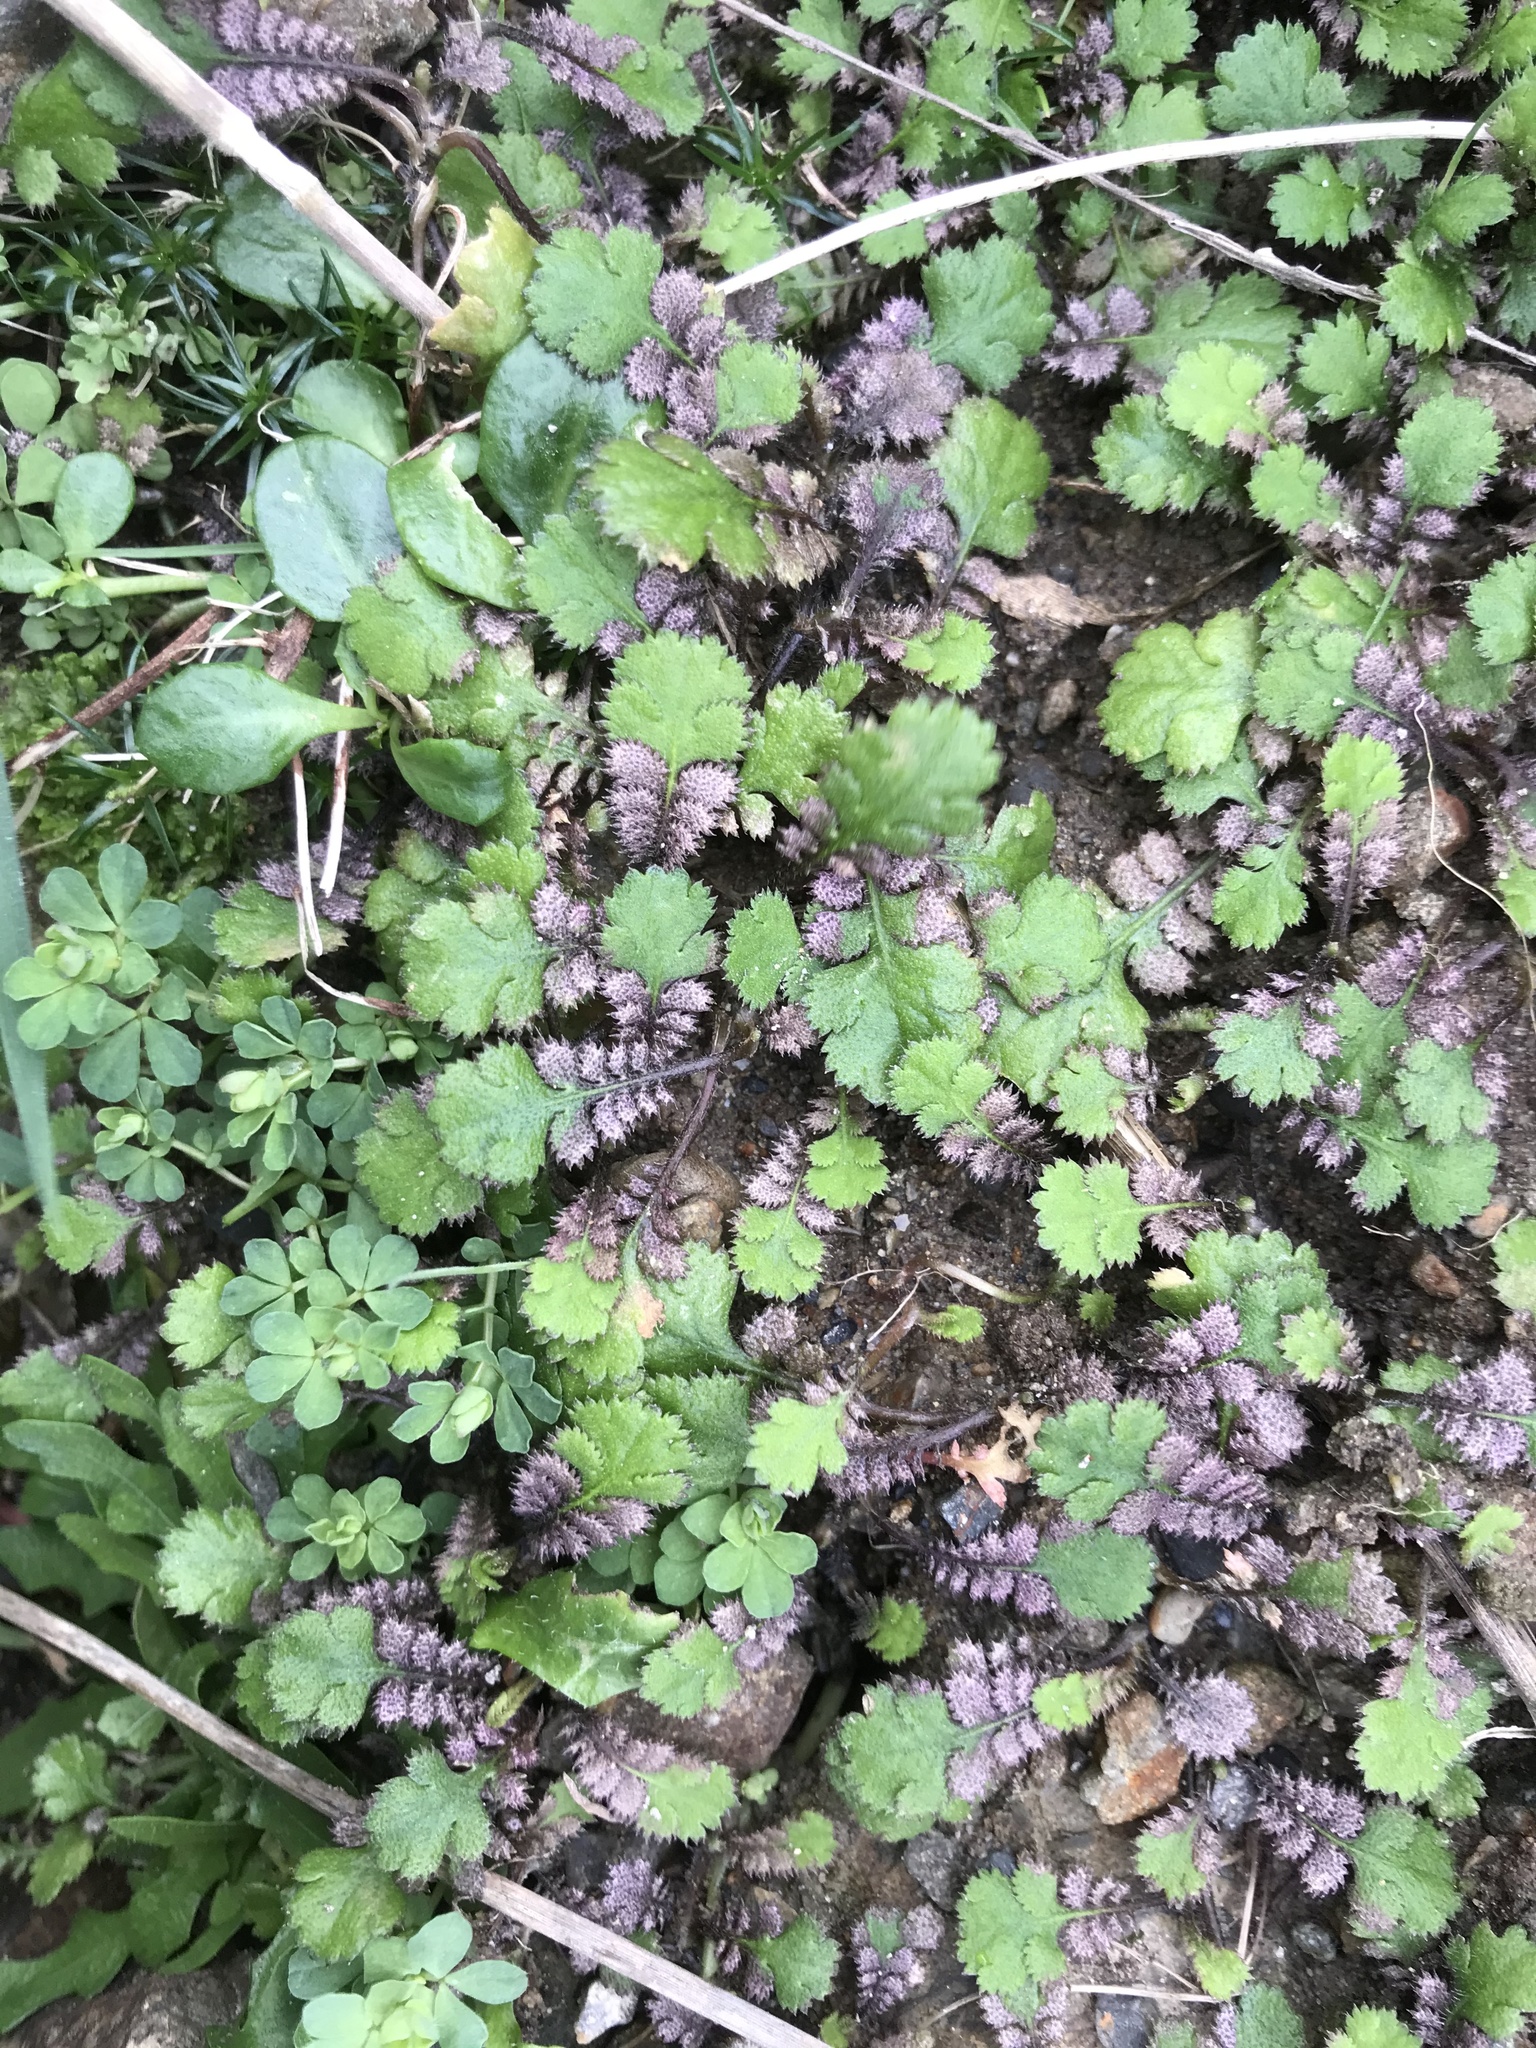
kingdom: Plantae
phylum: Tracheophyta
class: Magnoliopsida
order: Asterales
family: Asteraceae
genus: Leptinella
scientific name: Leptinella squalida
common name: New zealand brass-buttons
